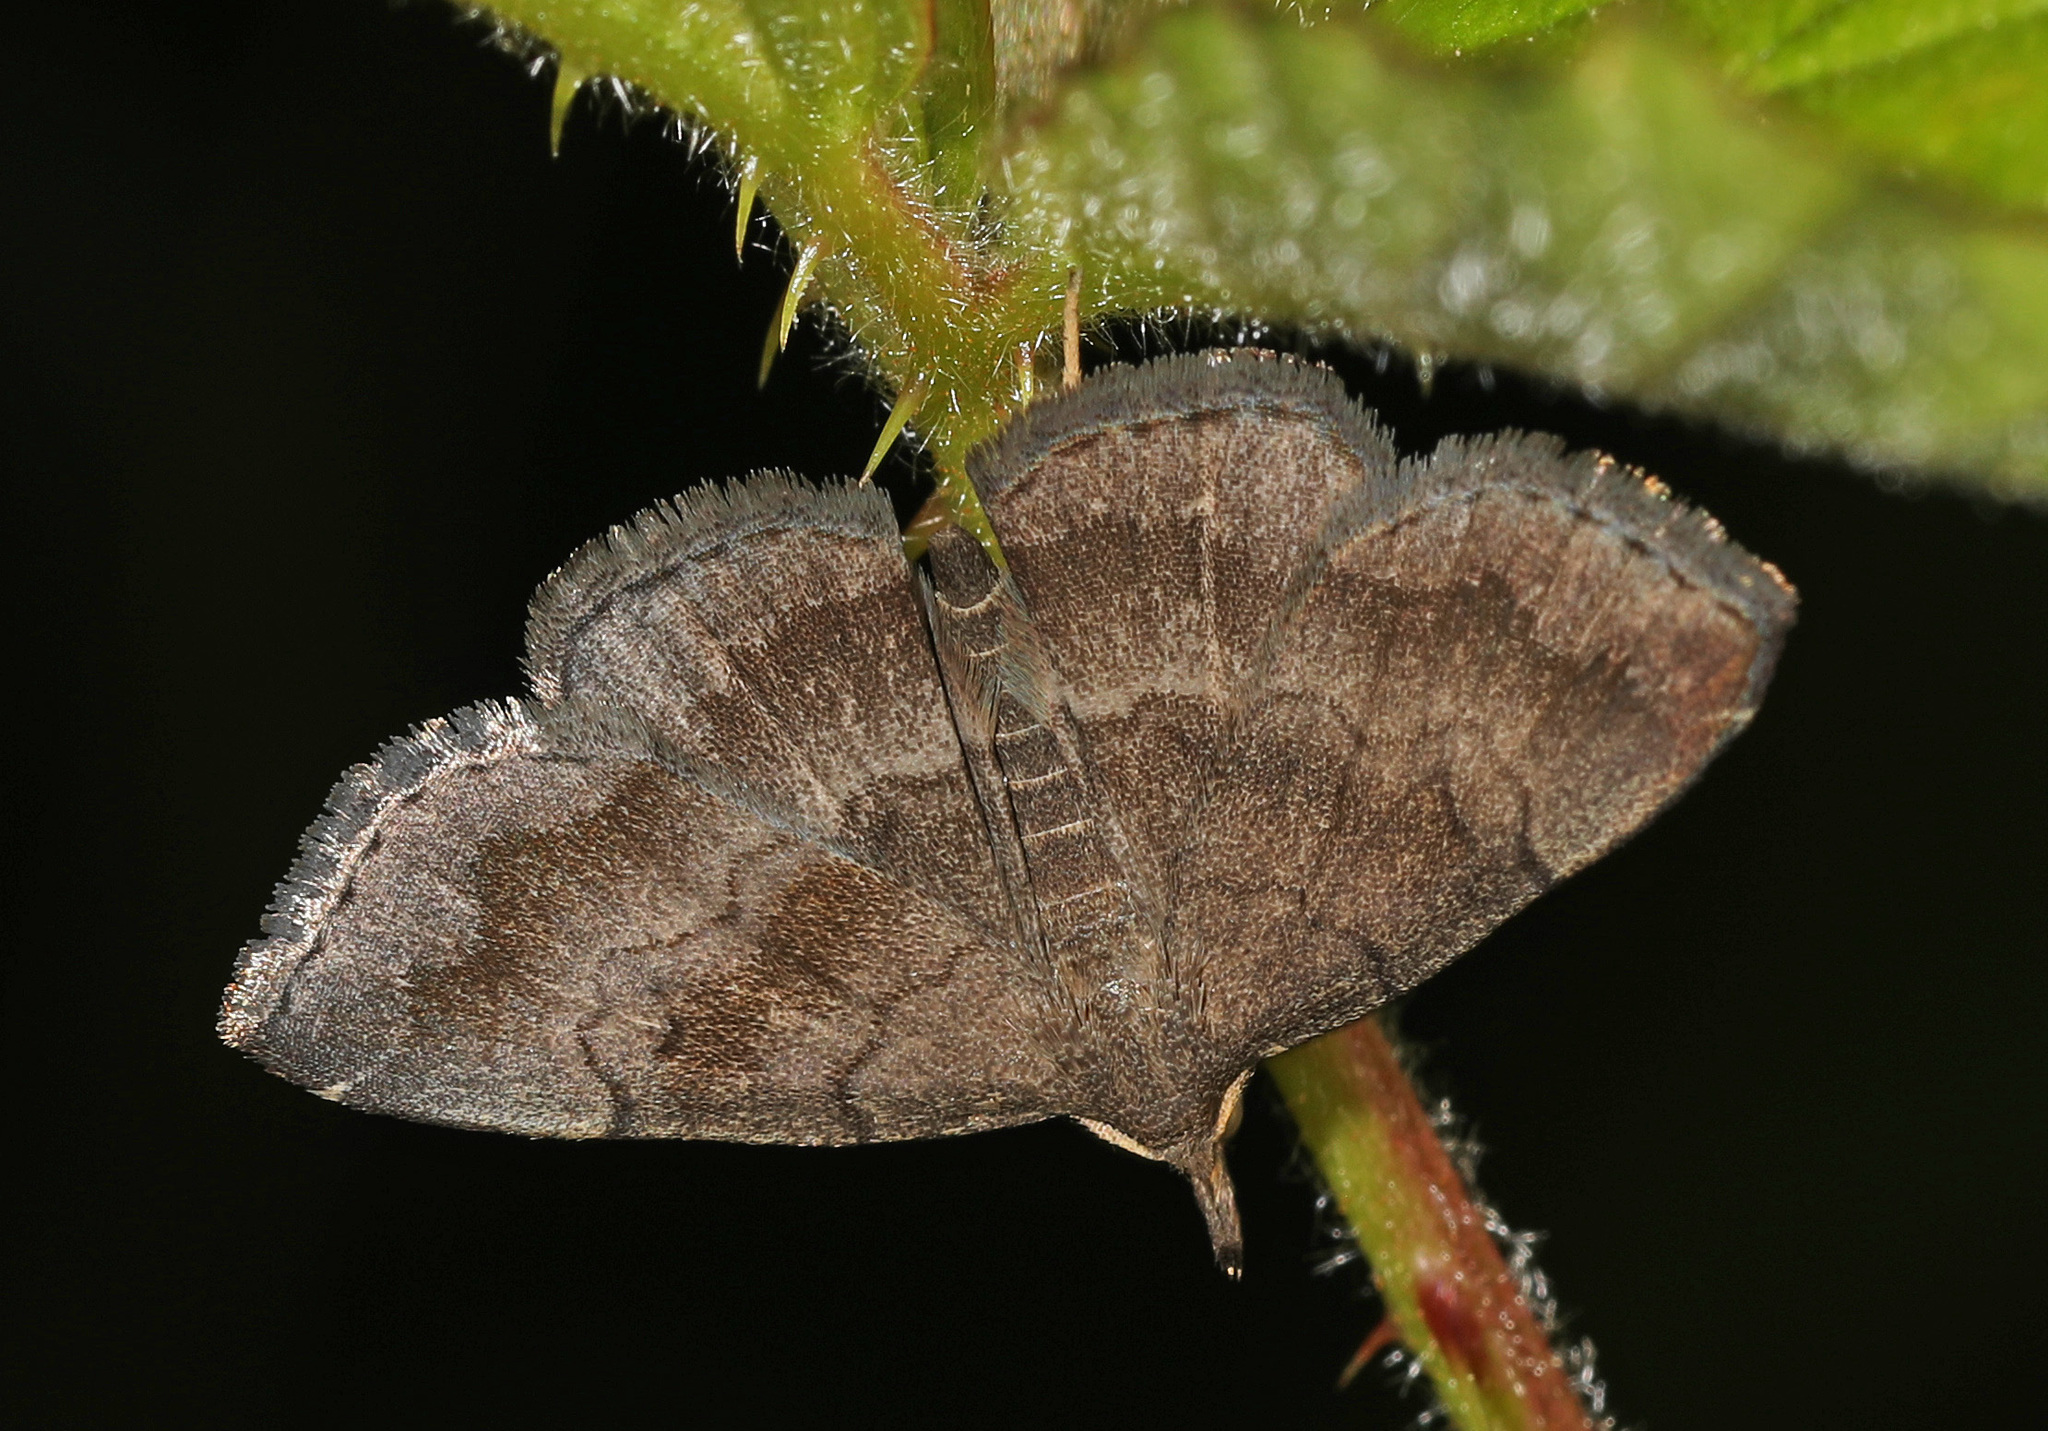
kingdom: Animalia
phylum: Arthropoda
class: Insecta
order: Lepidoptera
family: Erebidae
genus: Phalaenostola
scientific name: Phalaenostola larentioides
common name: Black-banded owlet
